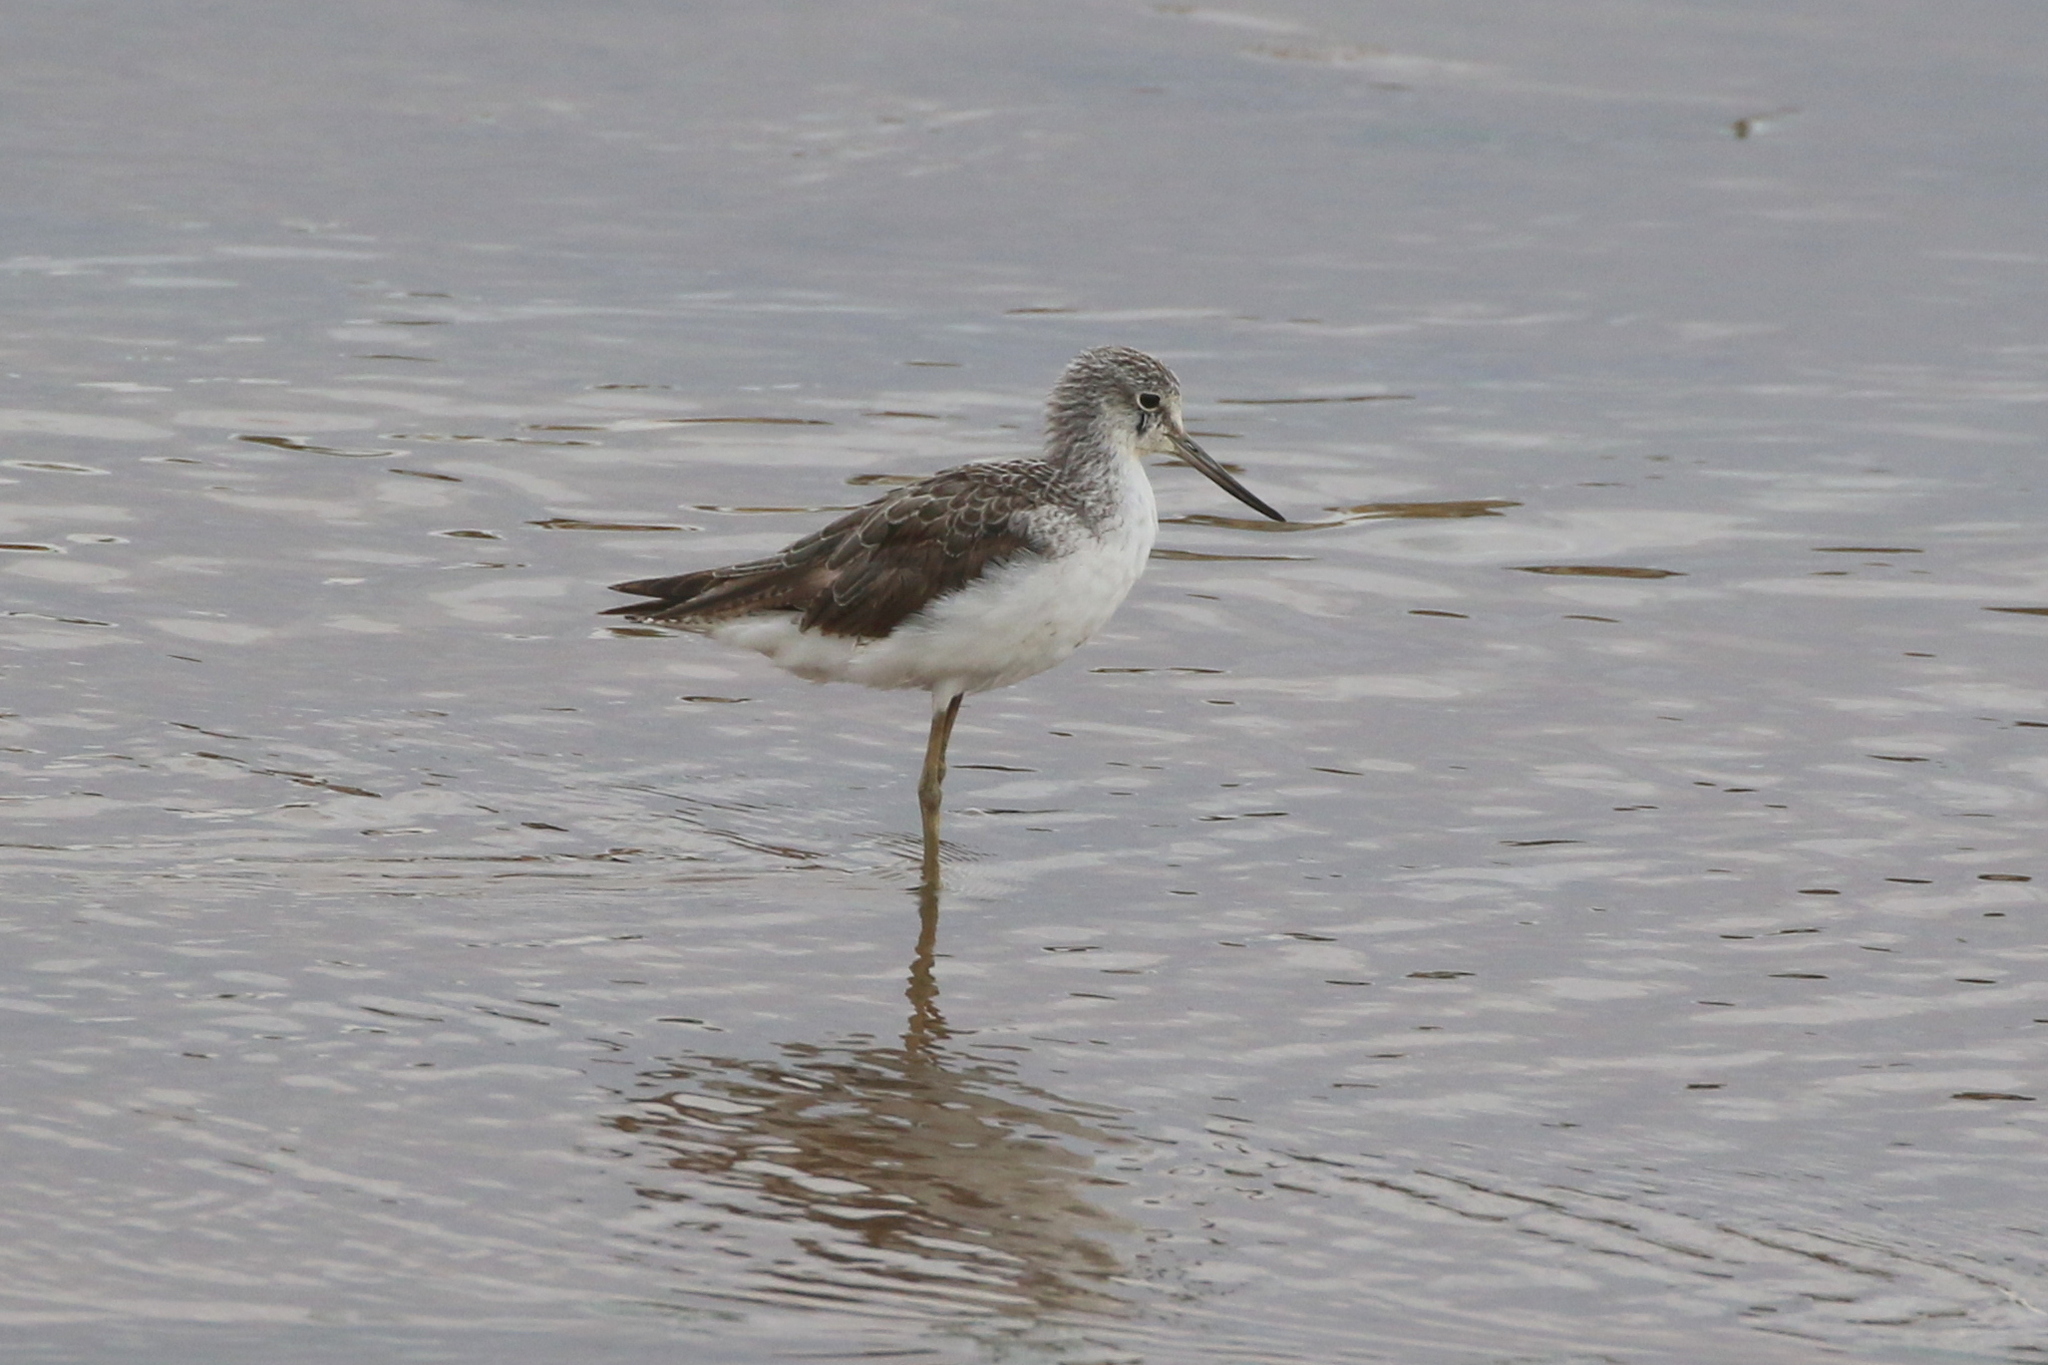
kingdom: Animalia
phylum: Chordata
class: Aves
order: Charadriiformes
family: Scolopacidae
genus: Tringa
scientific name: Tringa nebularia
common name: Common greenshank
